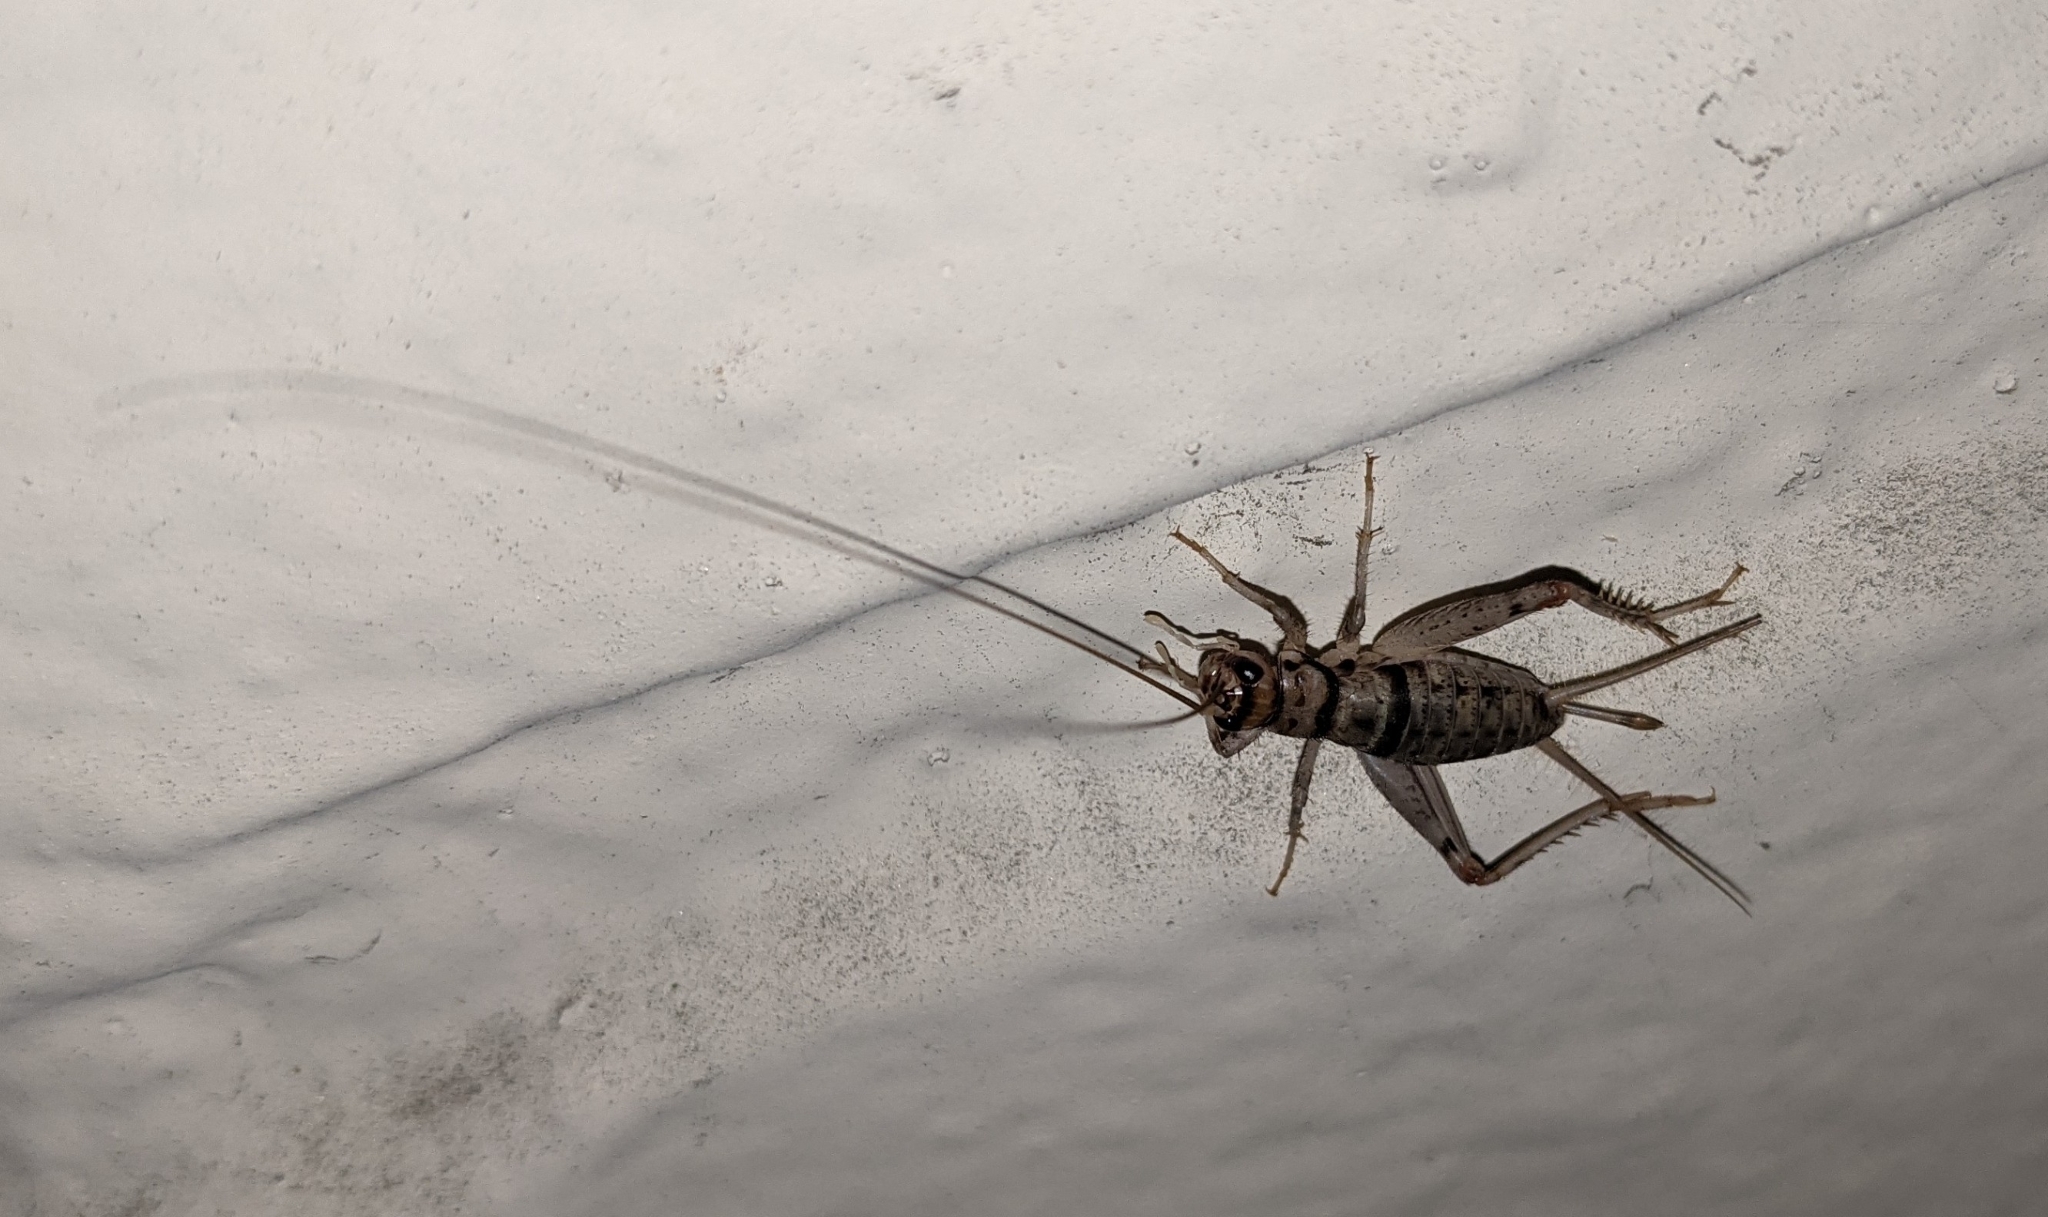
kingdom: Animalia
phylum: Arthropoda
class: Insecta
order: Orthoptera
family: Gryllidae
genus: Gryllodes
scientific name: Gryllodes sigillatus
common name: Tropical house cricket
